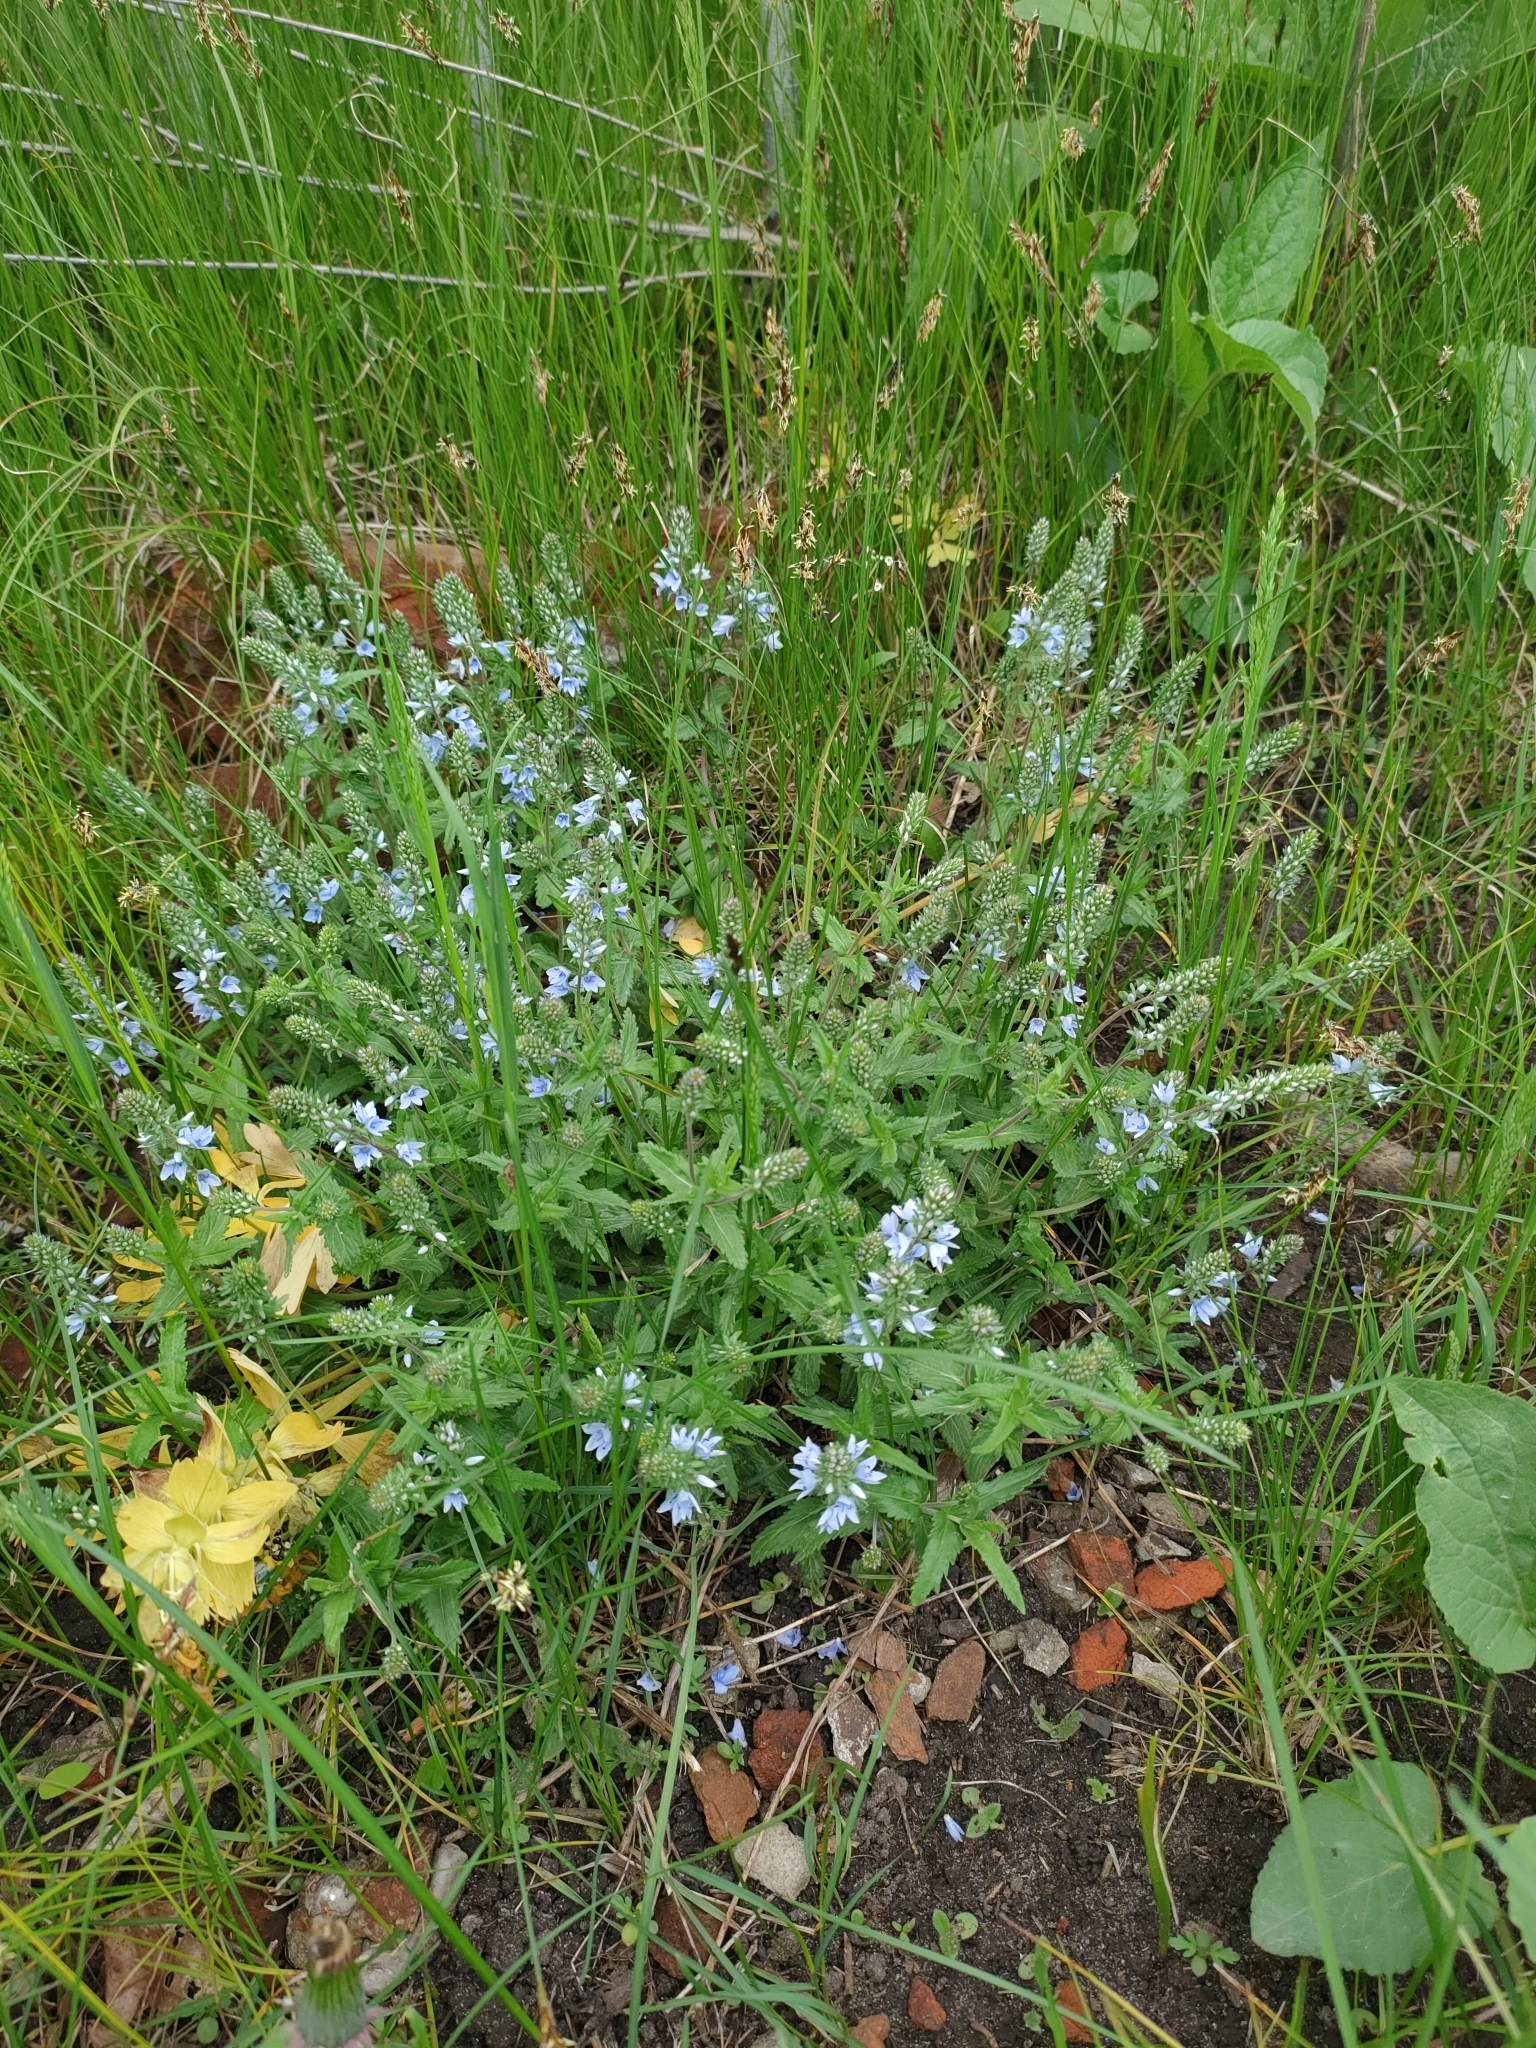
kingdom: Plantae
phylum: Tracheophyta
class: Magnoliopsida
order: Lamiales
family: Plantaginaceae
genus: Veronica
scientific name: Veronica prostrata
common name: Prostrate speedwell
